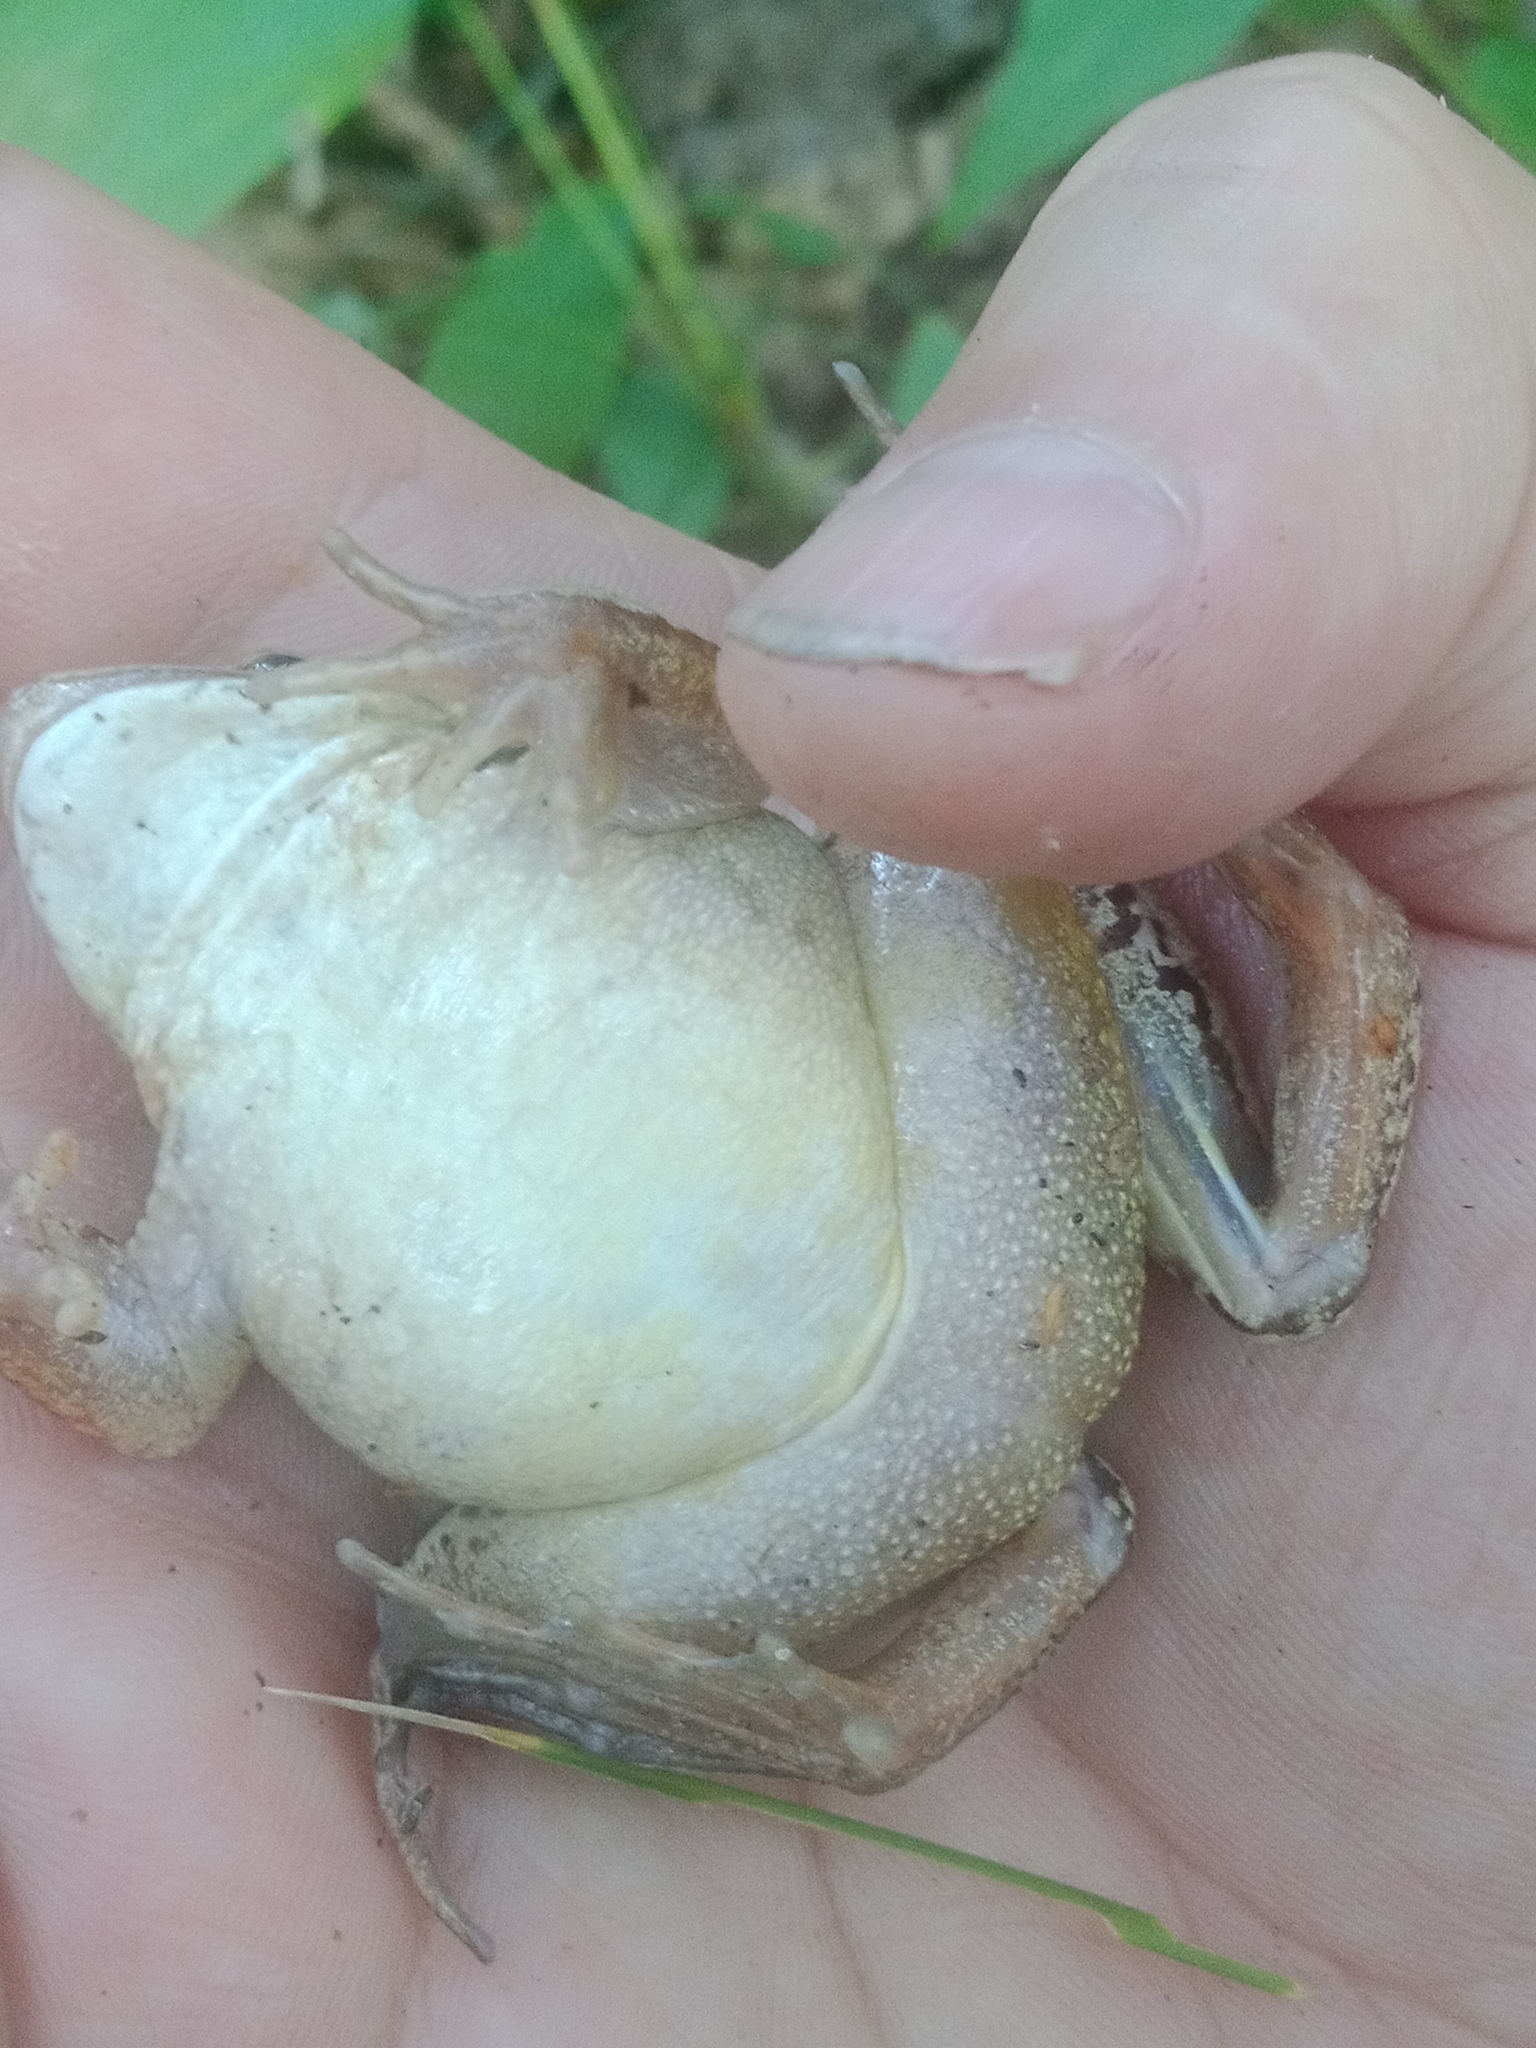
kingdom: Animalia
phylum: Chordata
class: Amphibia
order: Anura
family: Ranidae
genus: Rana
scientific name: Rana arvalis
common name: Moor frog
